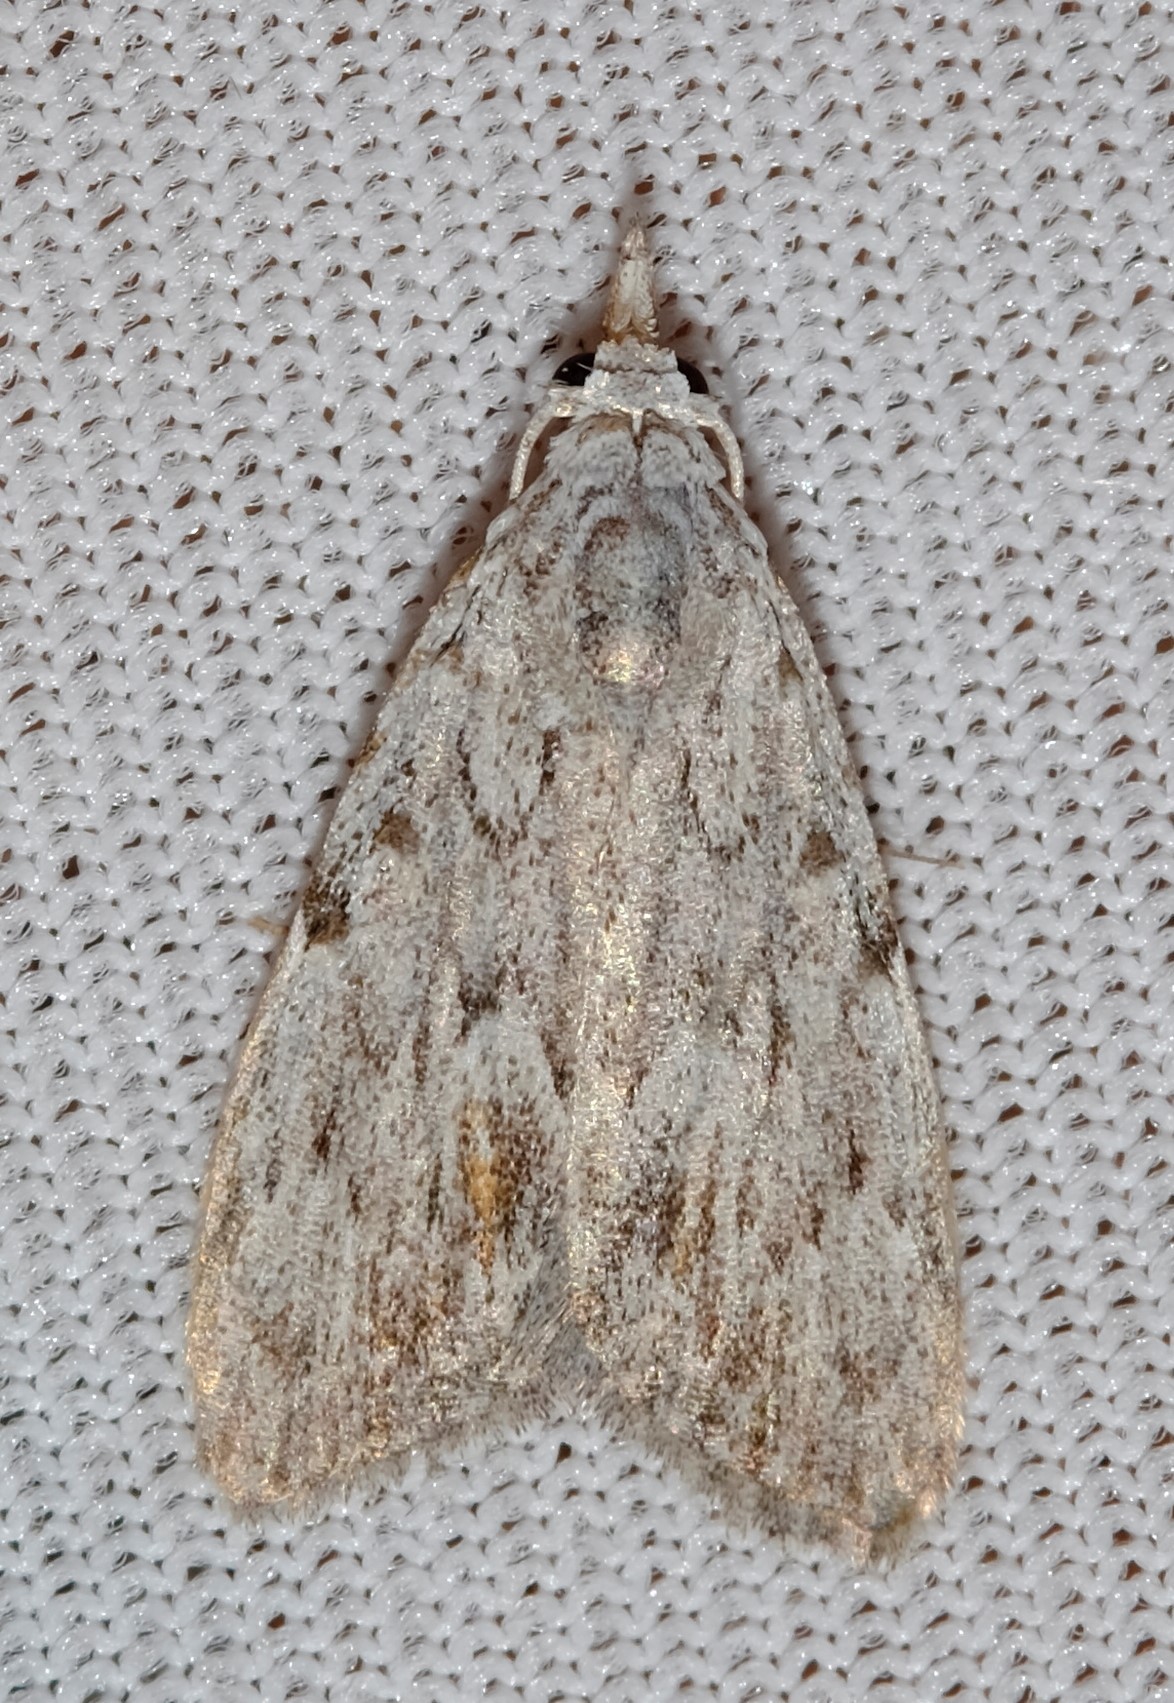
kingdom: Animalia
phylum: Arthropoda
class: Insecta
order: Lepidoptera
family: Nolidae
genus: Nola
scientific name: Nola crucigera
